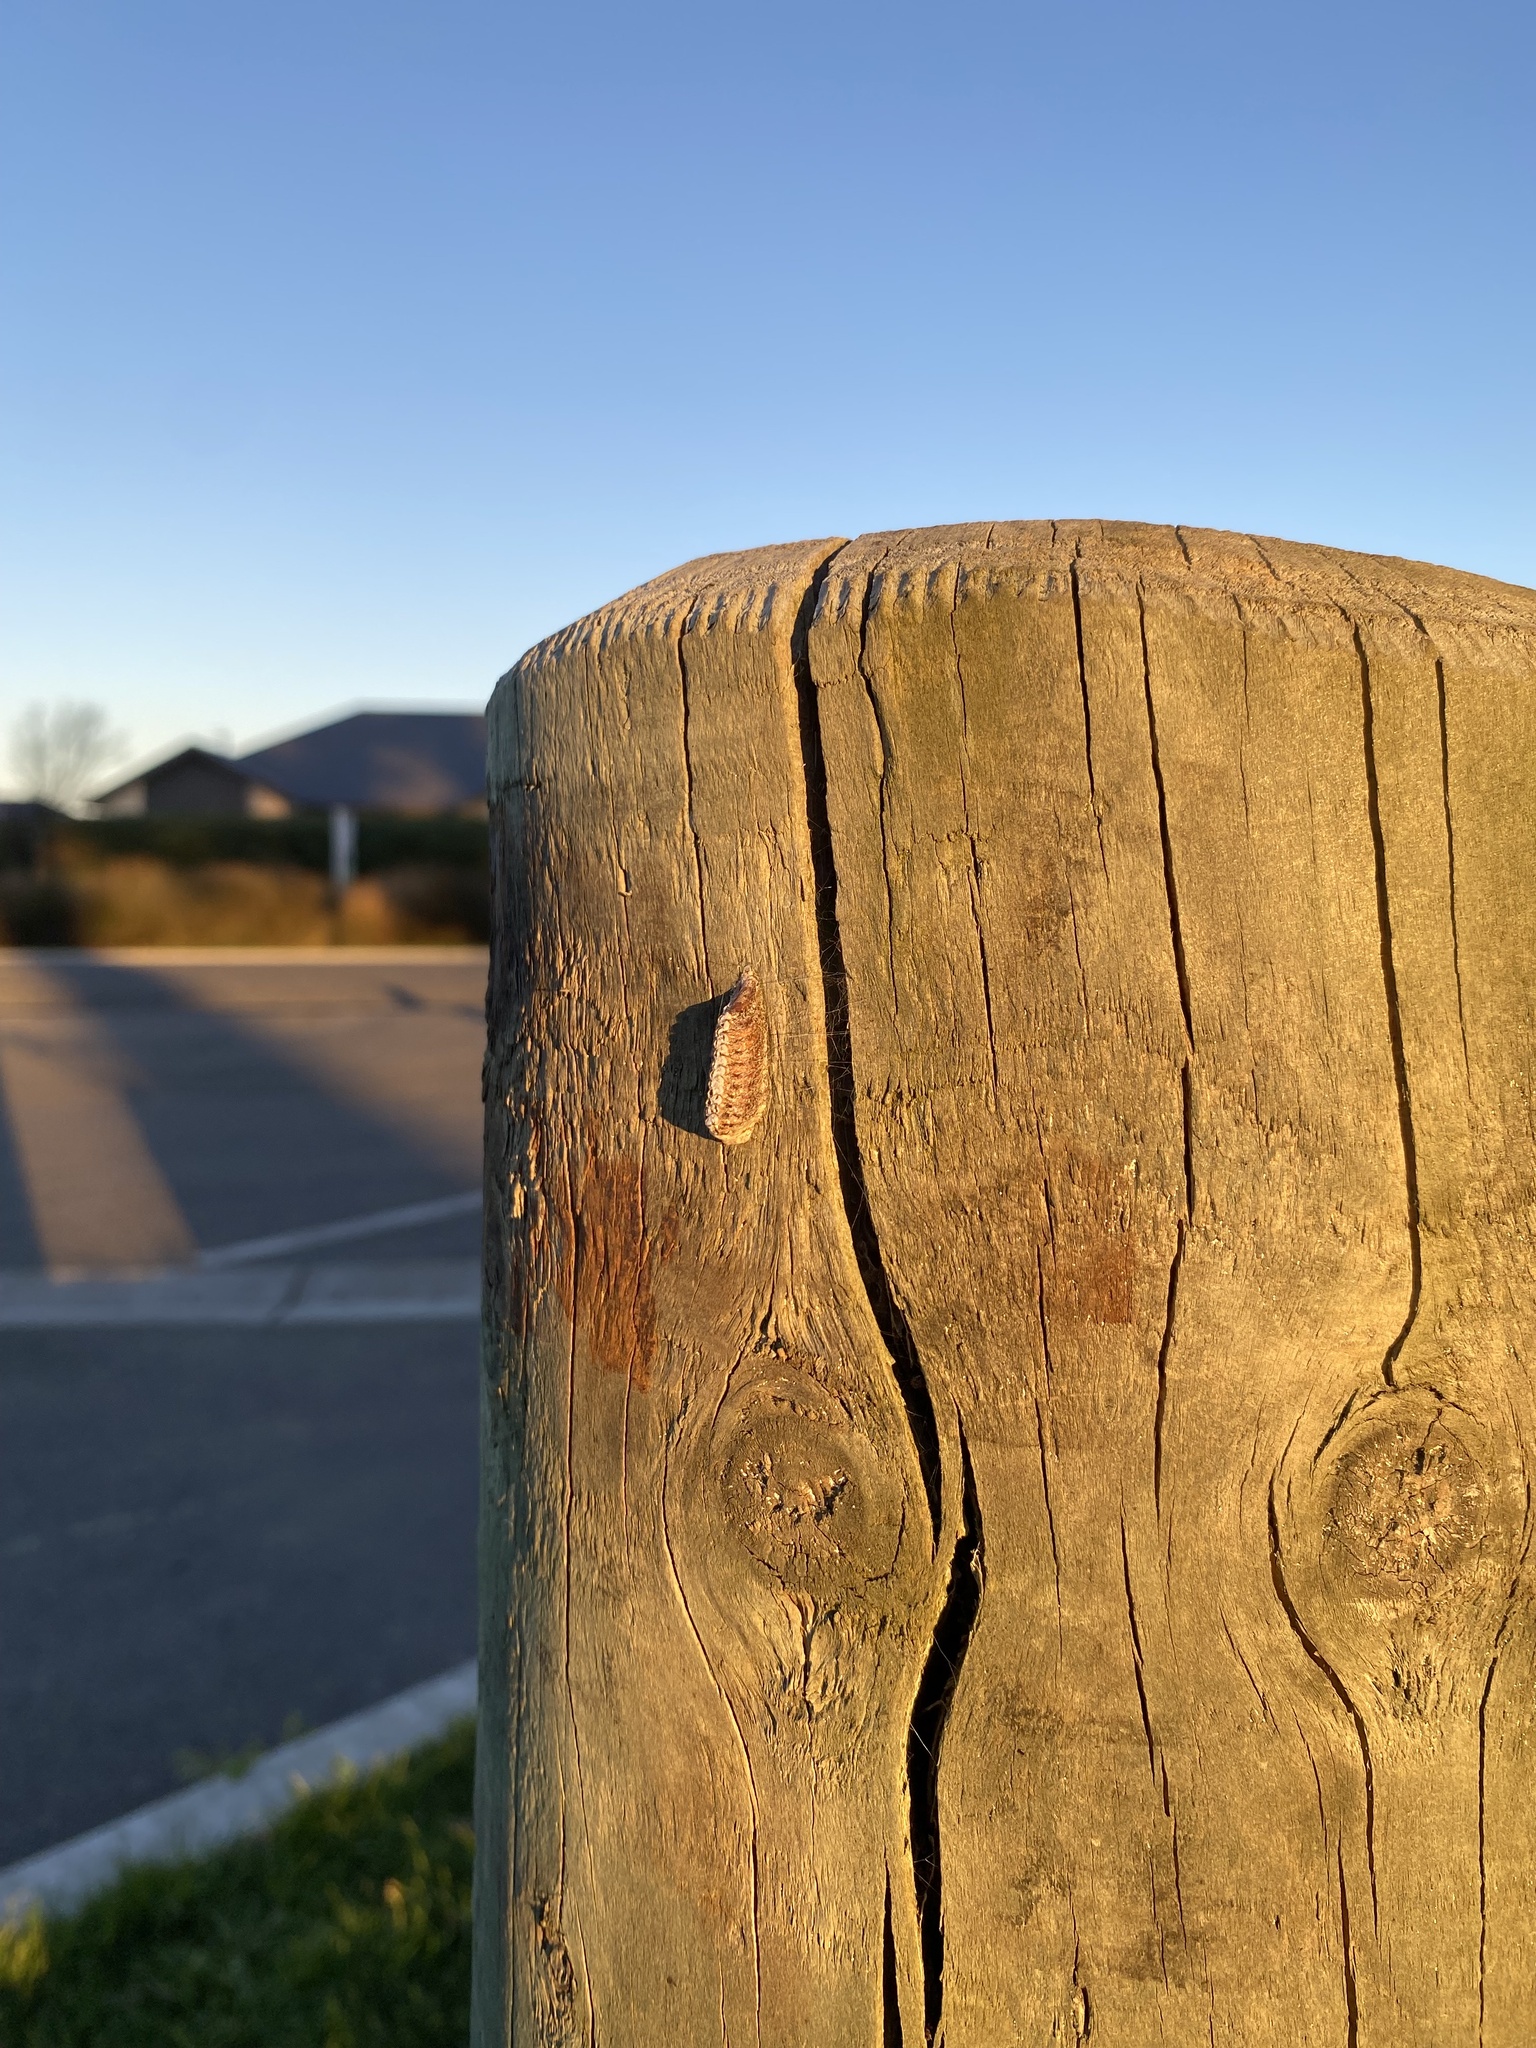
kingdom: Animalia
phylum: Arthropoda
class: Insecta
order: Mantodea
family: Mantidae
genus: Orthodera
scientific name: Orthodera novaezealandiae
